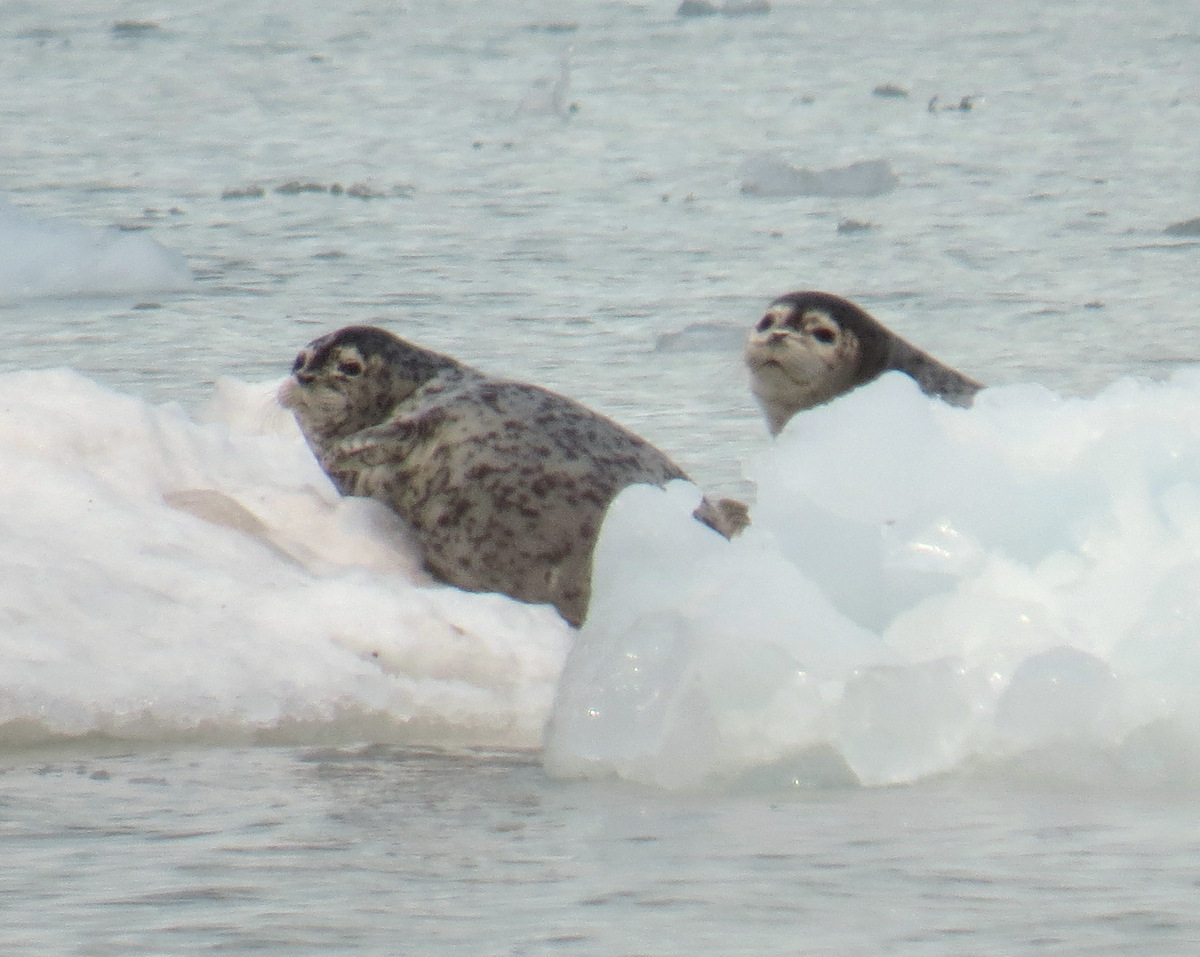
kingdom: Animalia
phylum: Chordata
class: Mammalia
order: Carnivora
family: Phocidae
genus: Phoca
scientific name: Phoca vitulina
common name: Harbor seal
